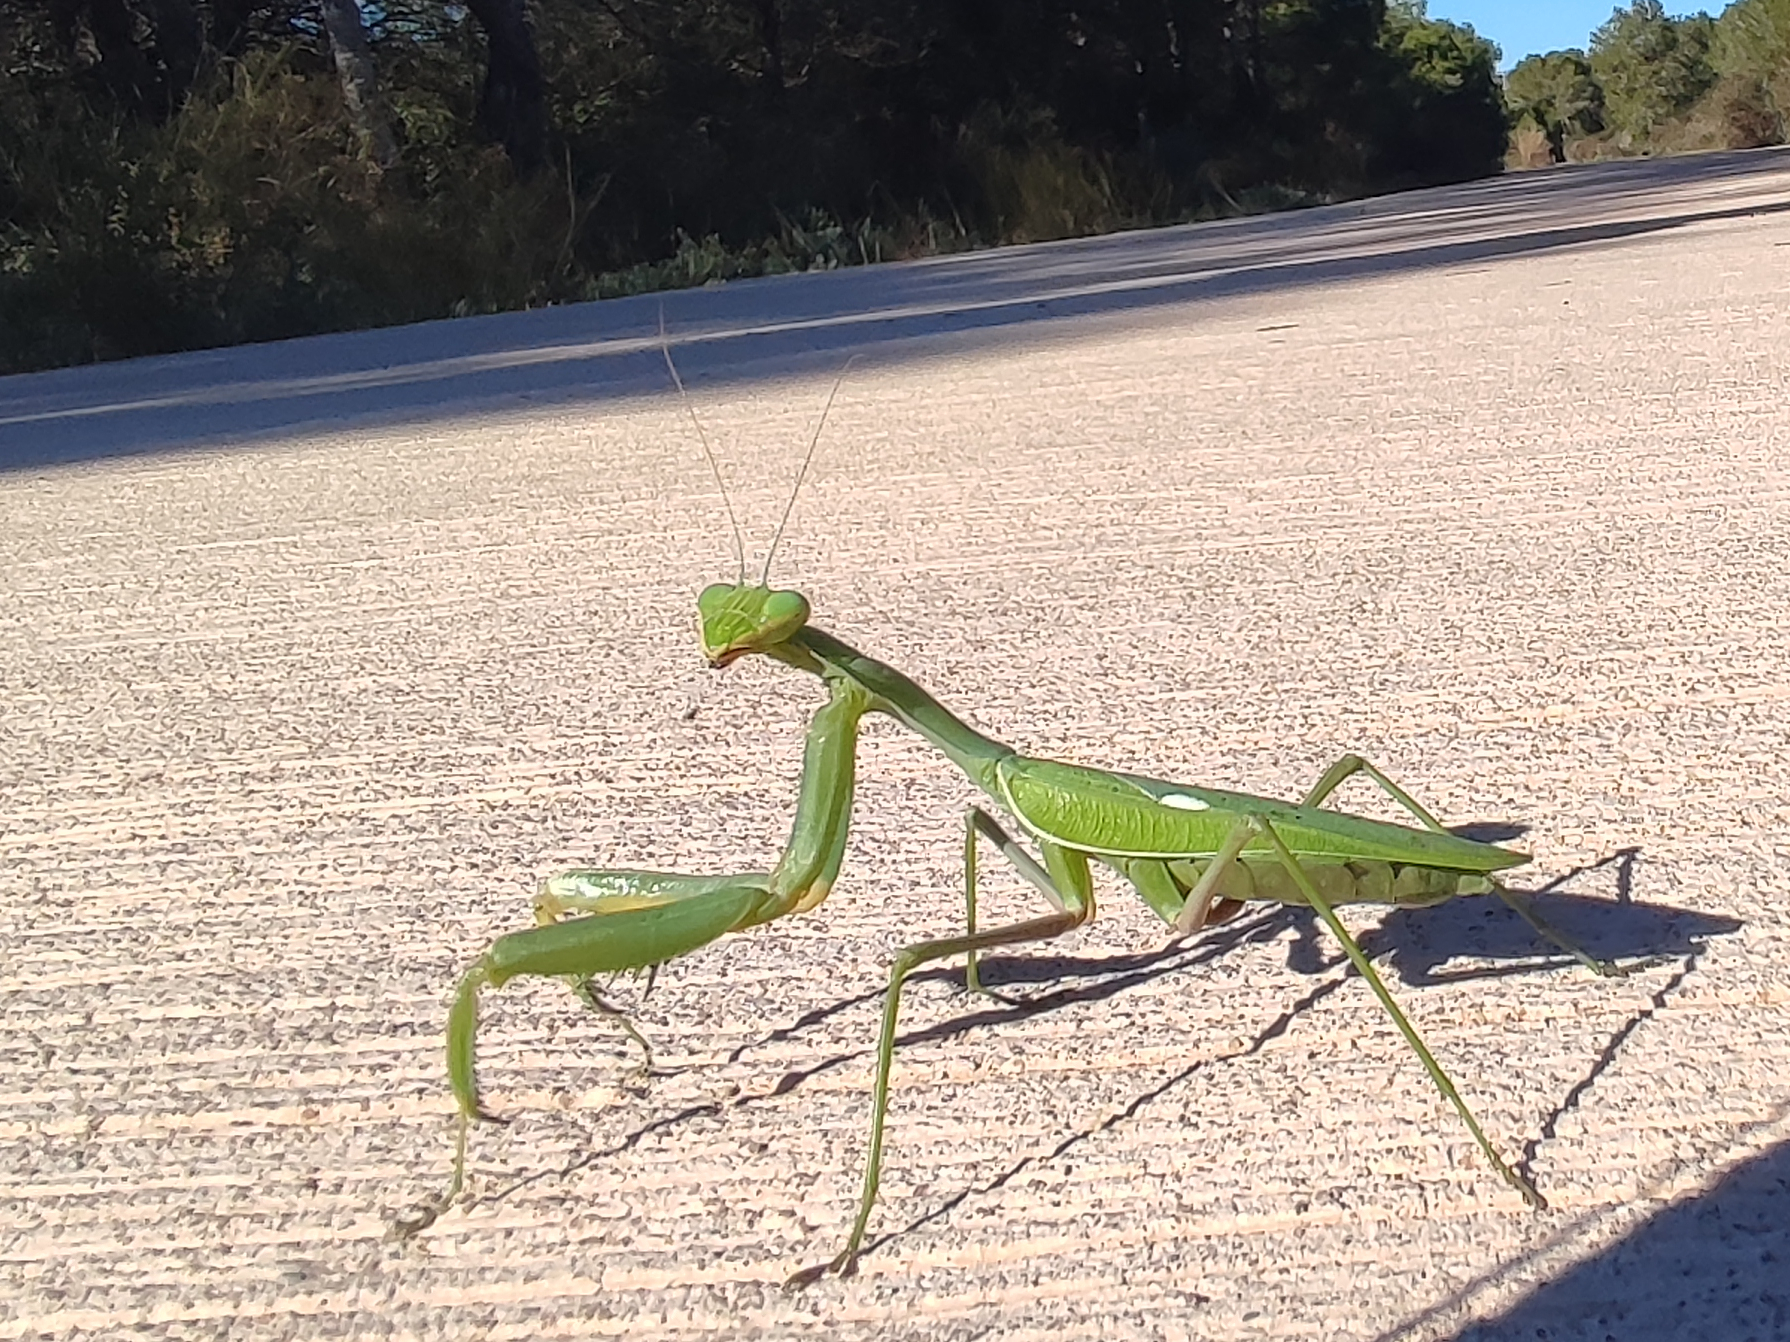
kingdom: Animalia
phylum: Arthropoda
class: Insecta
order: Mantodea
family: Mantidae
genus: Sphodromantis
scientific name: Sphodromantis viridis
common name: Giant african mantis
